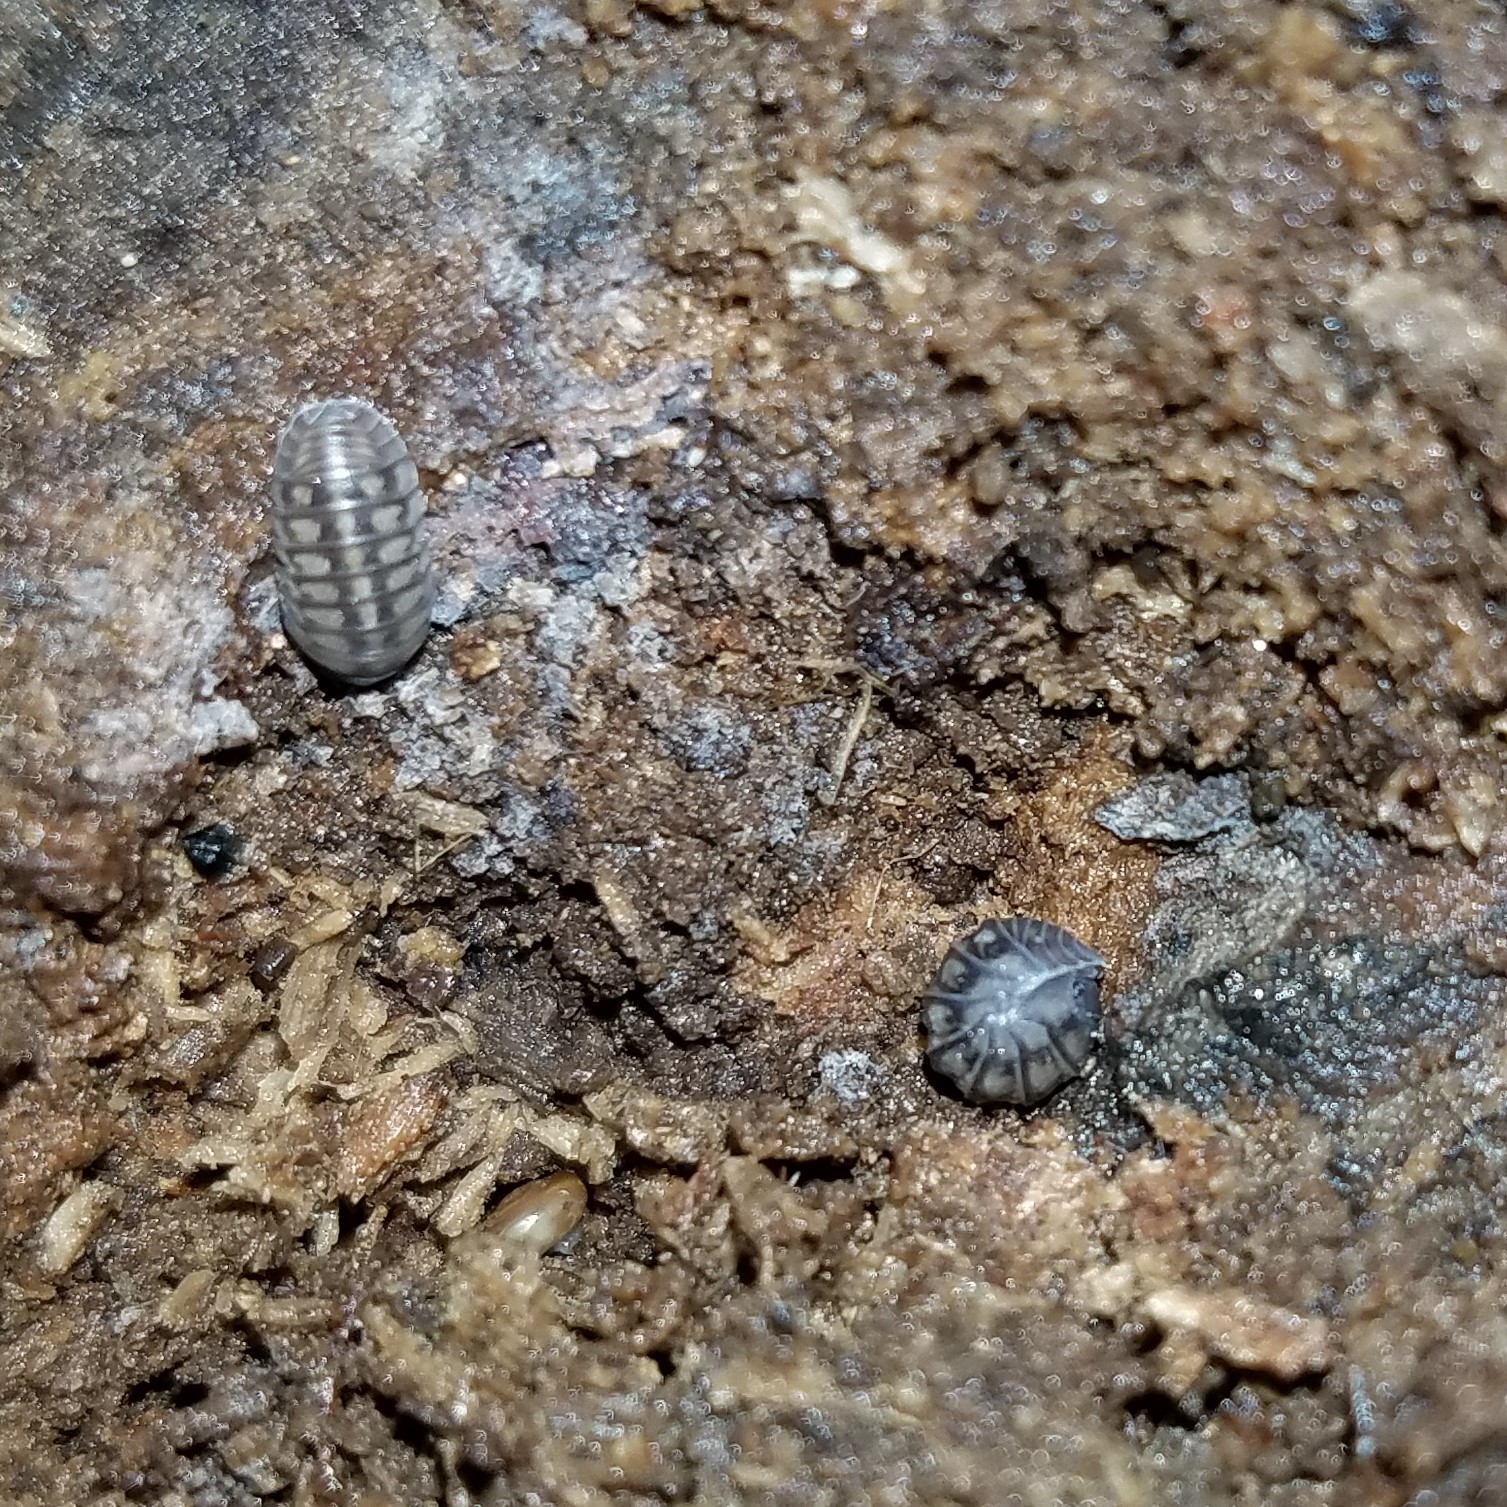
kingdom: Animalia
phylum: Arthropoda
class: Malacostraca
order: Isopoda
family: Armadillidiidae
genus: Armadillidium
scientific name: Armadillidium nasatum
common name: Isopod
